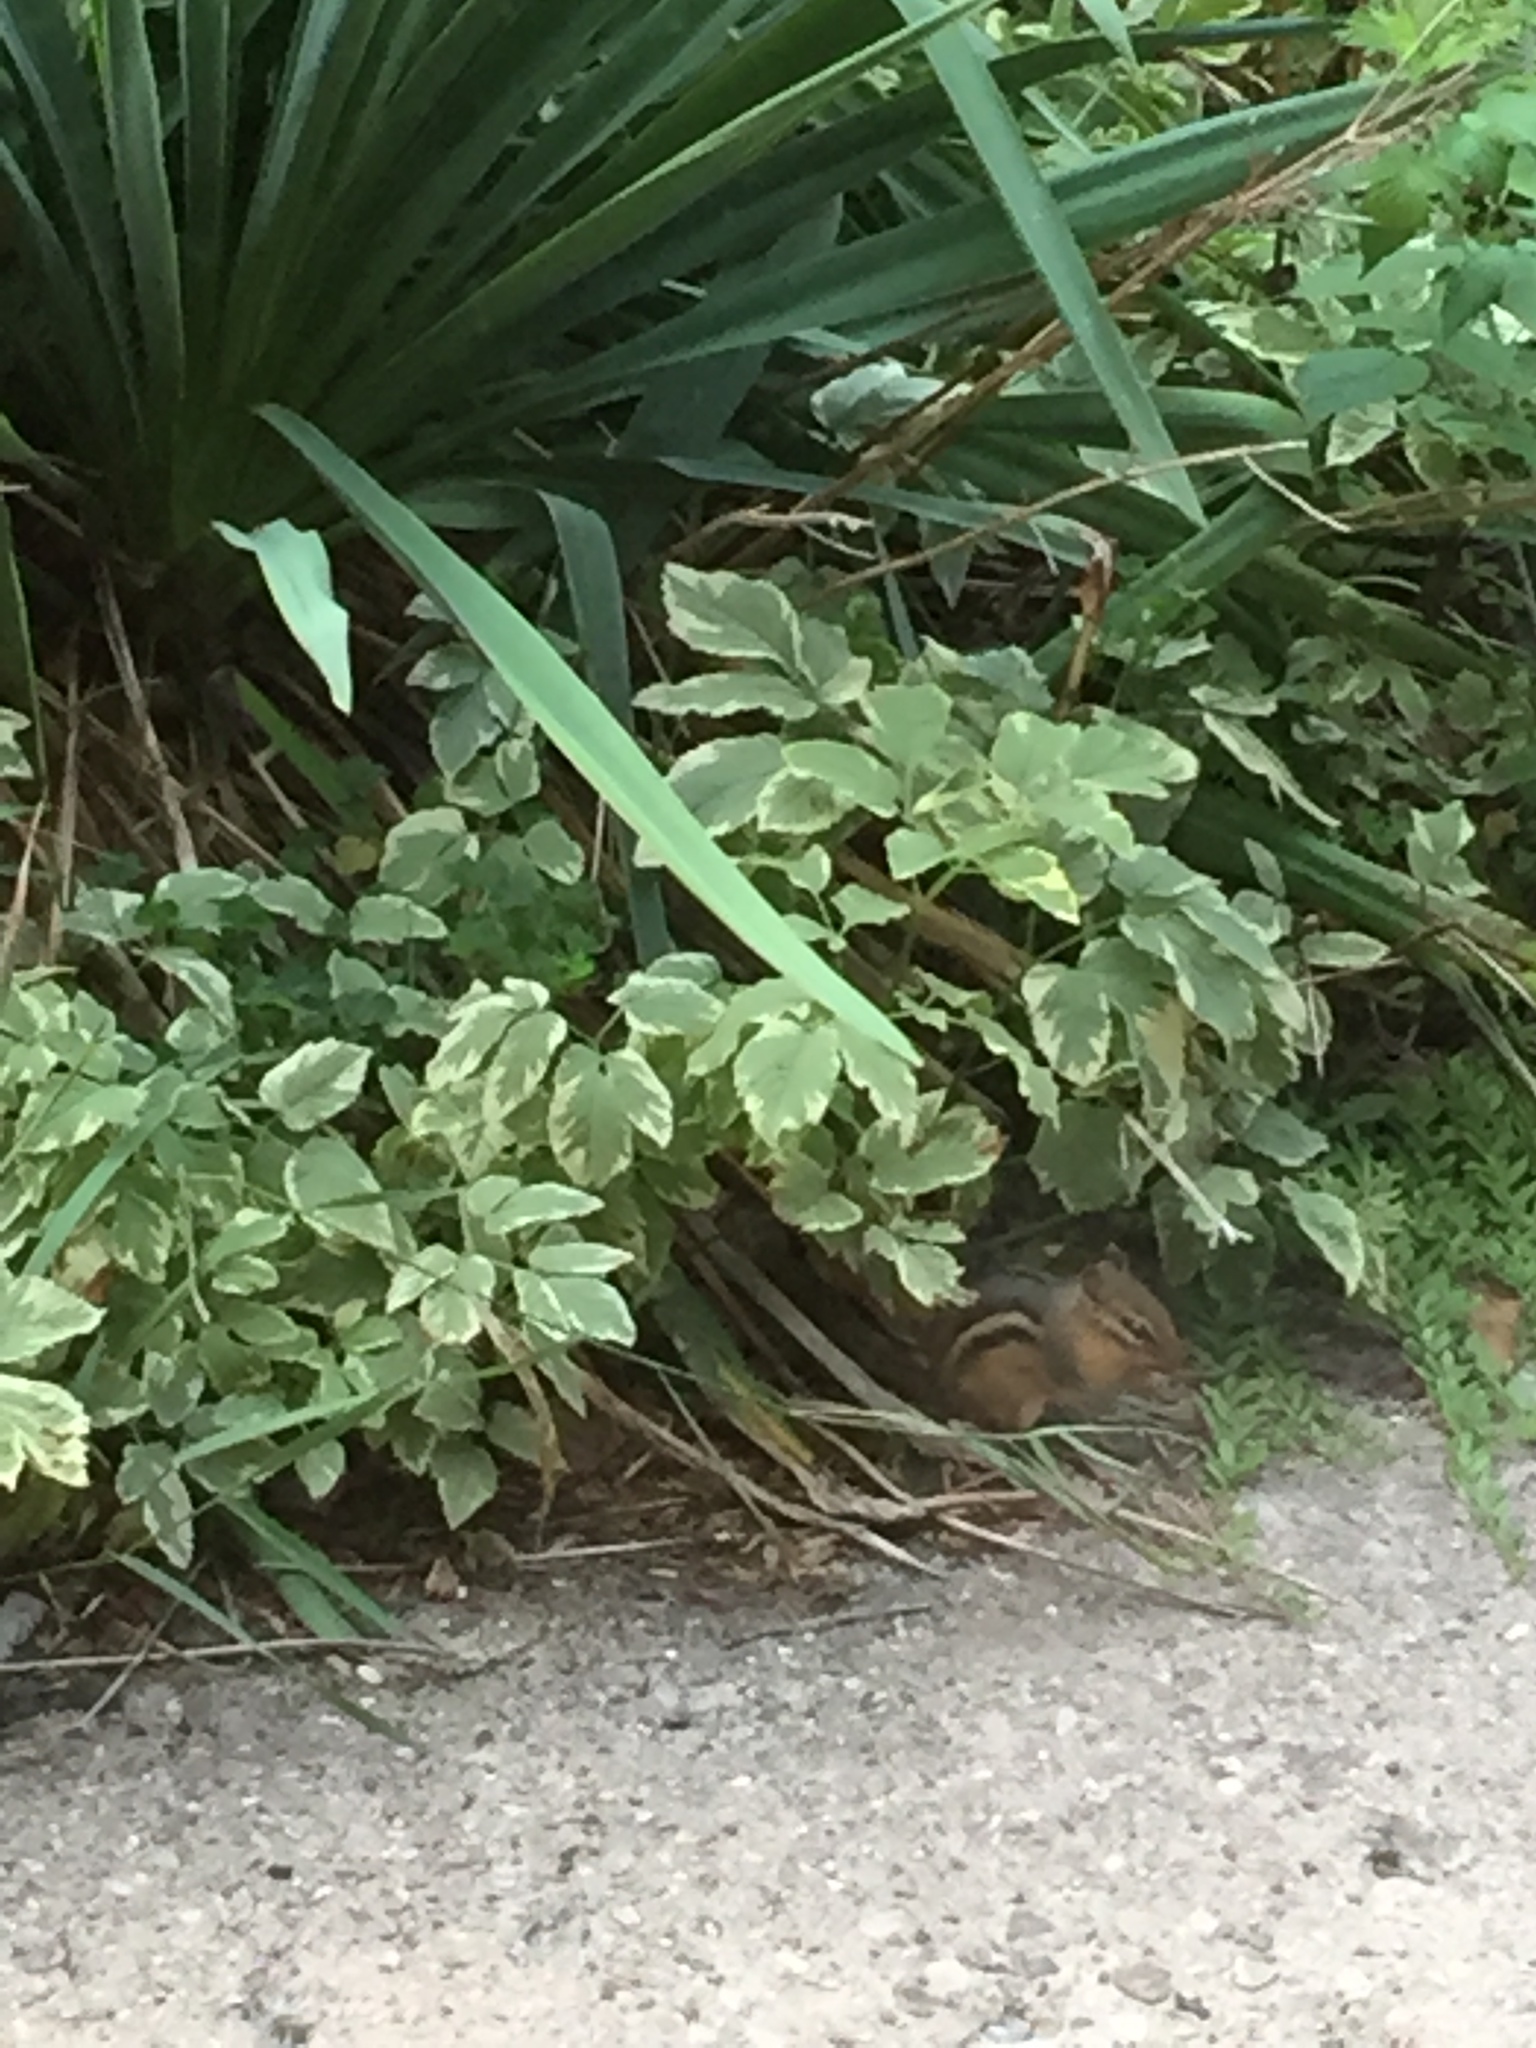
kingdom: Animalia
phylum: Chordata
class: Mammalia
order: Rodentia
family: Sciuridae
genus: Tamias
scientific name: Tamias striatus
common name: Eastern chipmunk
